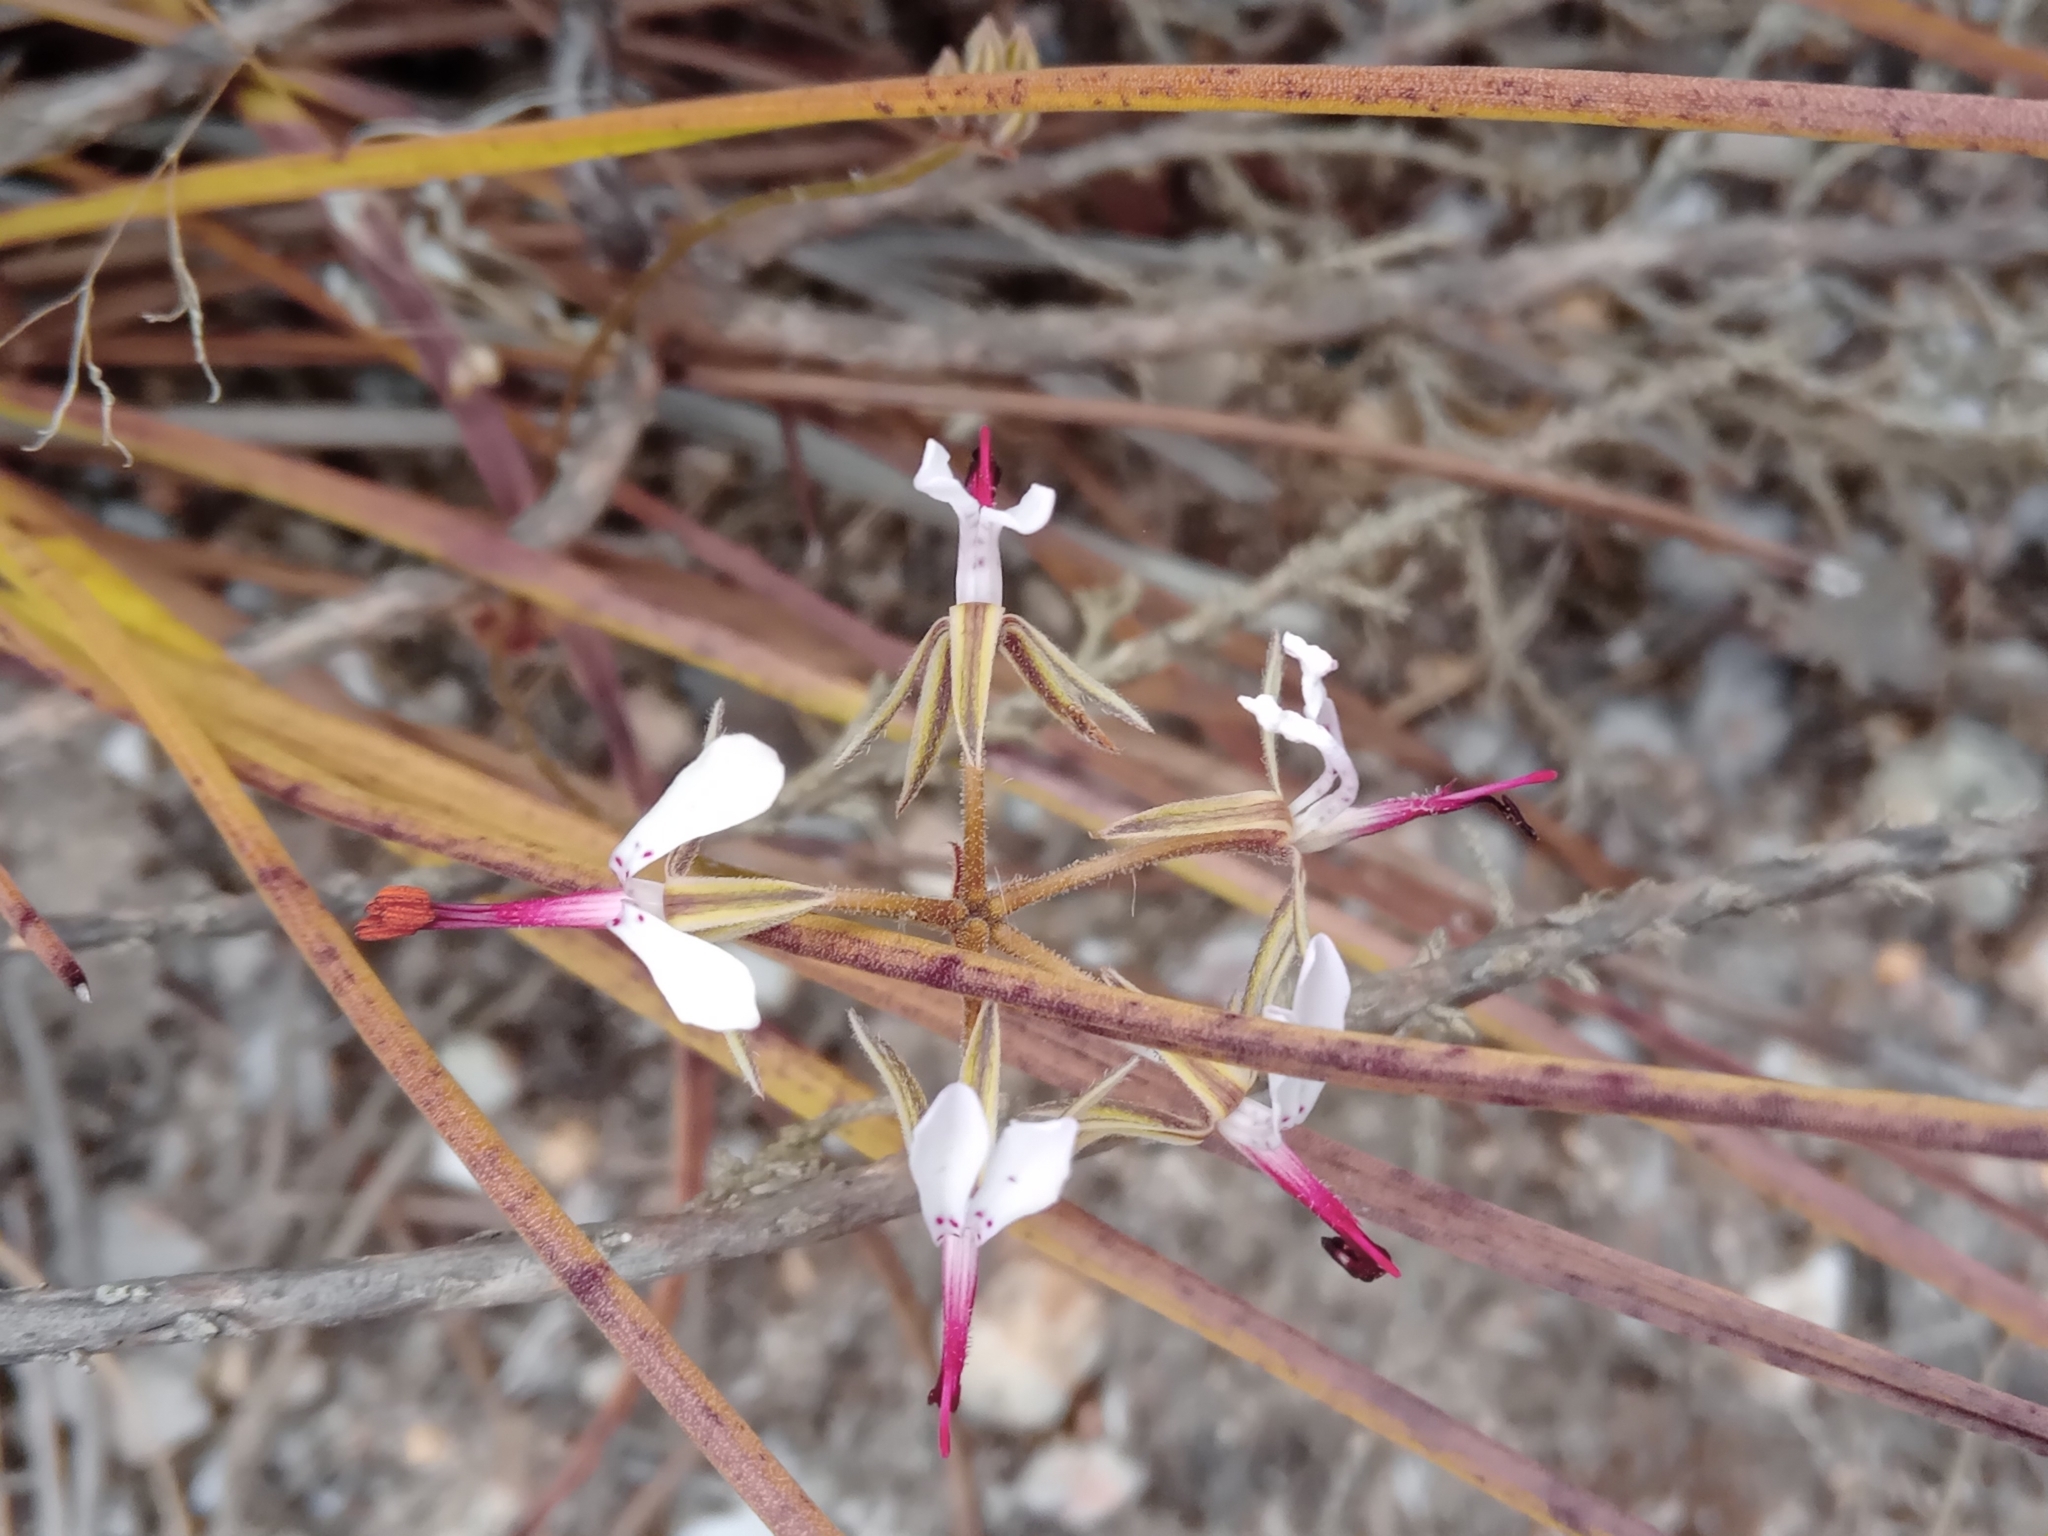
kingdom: Plantae
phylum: Tracheophyta
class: Magnoliopsida
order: Geraniales
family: Geraniaceae
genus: Pelargonium
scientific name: Pelargonium ternifolium
